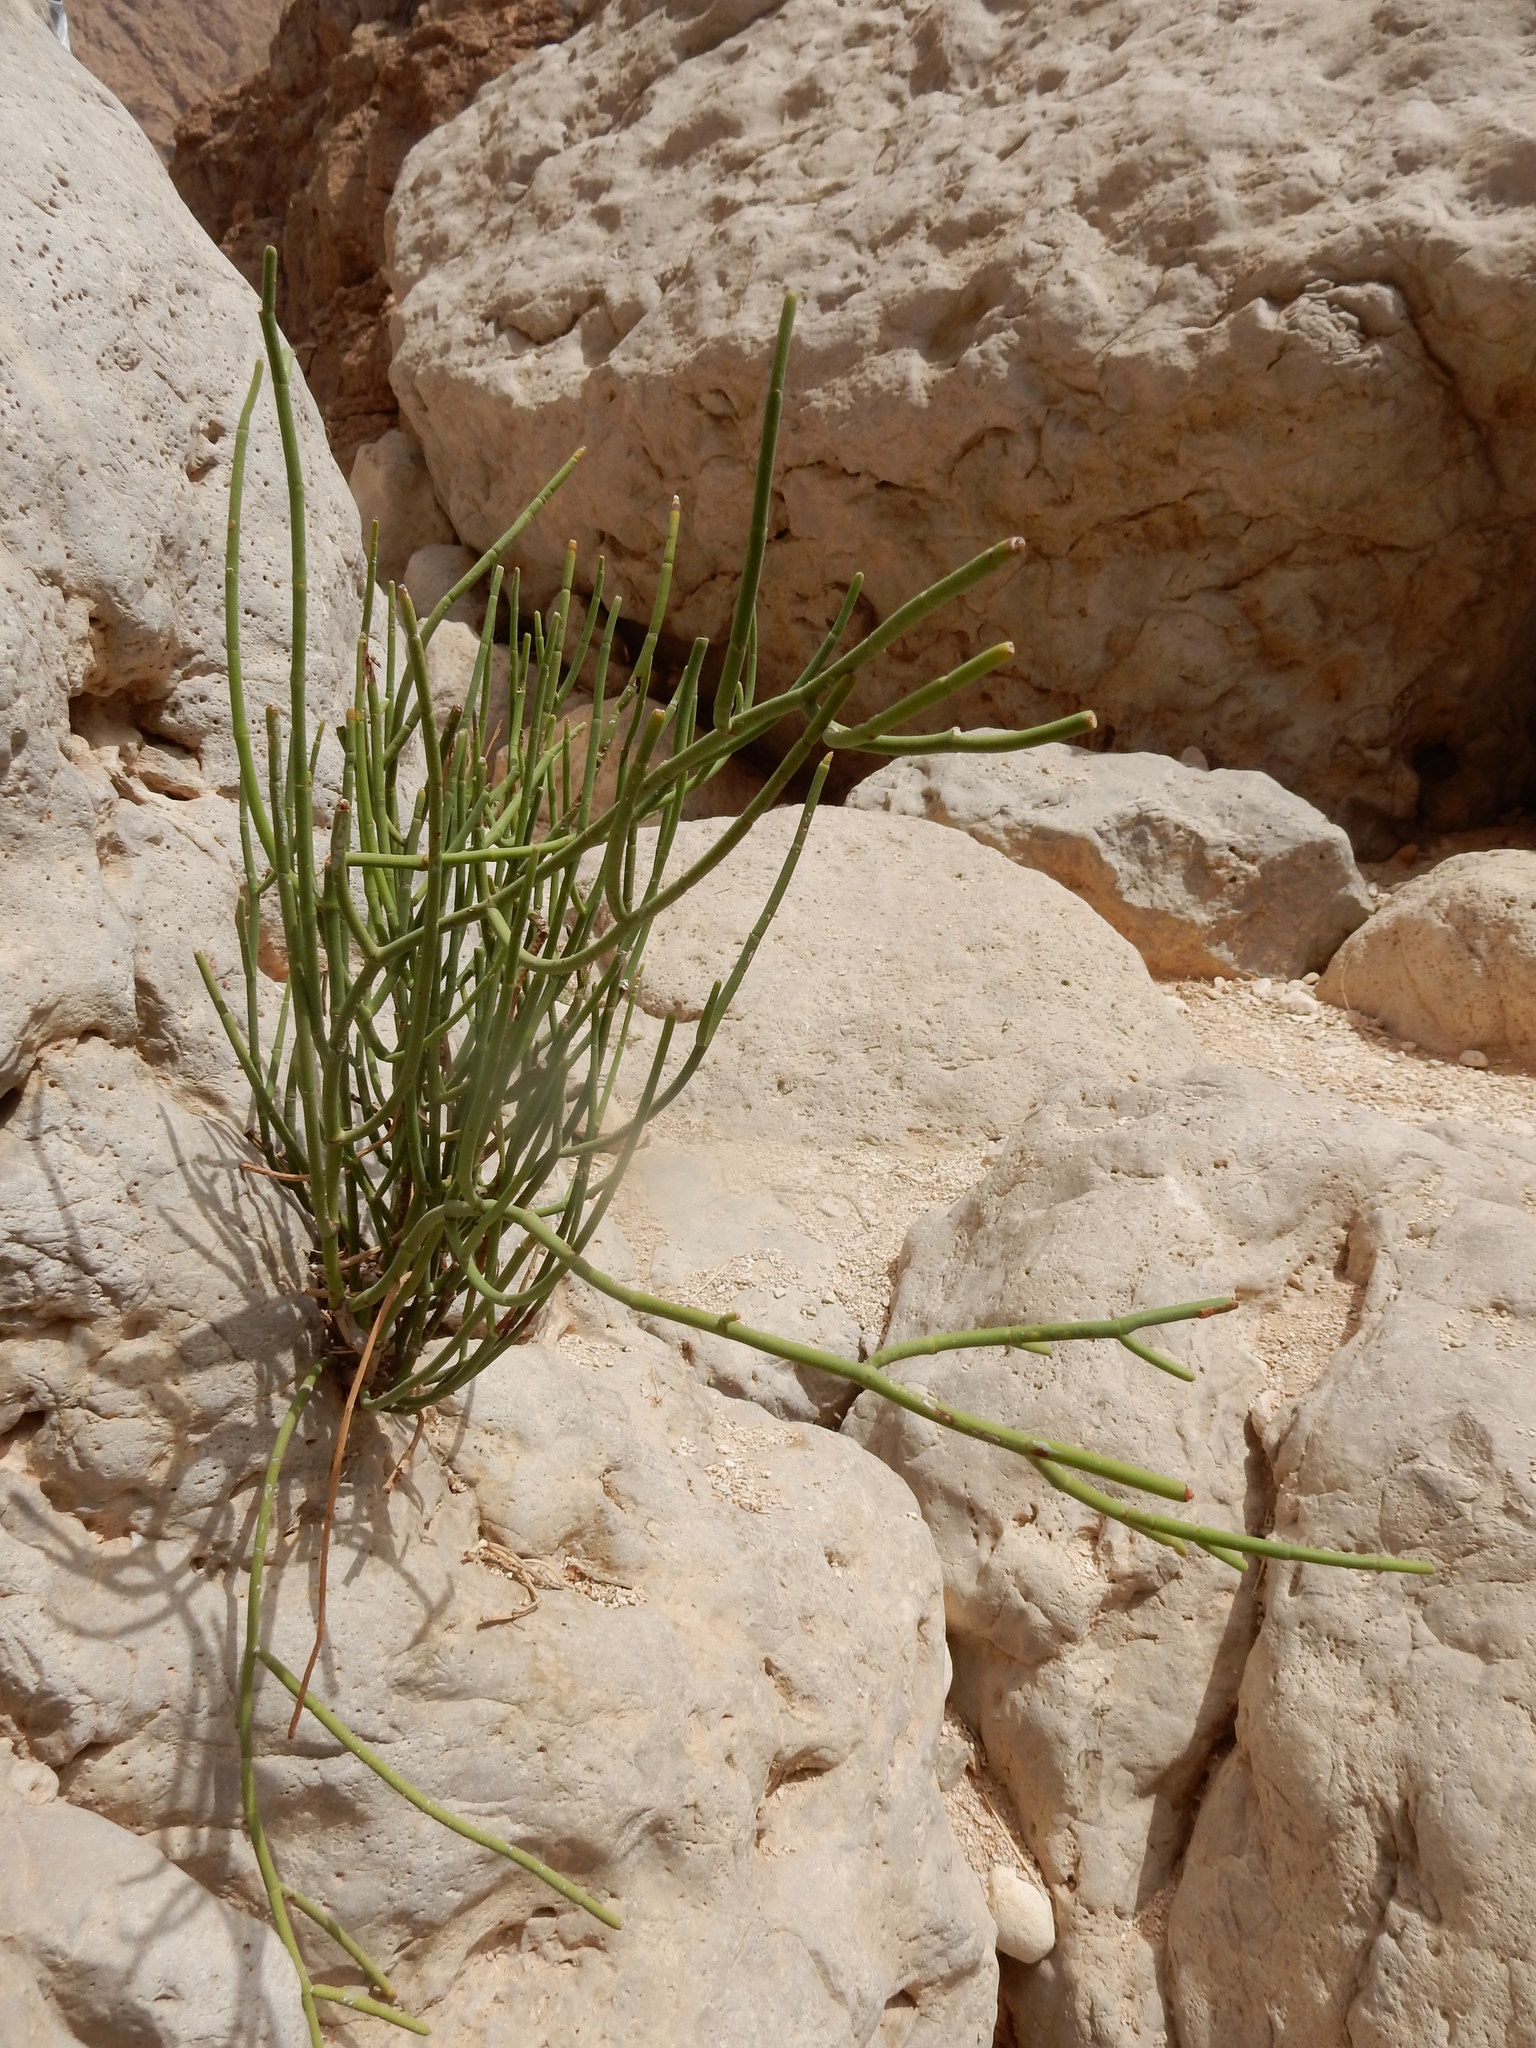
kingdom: Plantae
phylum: Tracheophyta
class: Magnoliopsida
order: Malpighiales
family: Euphorbiaceae
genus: Euphorbia
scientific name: Euphorbia larica
